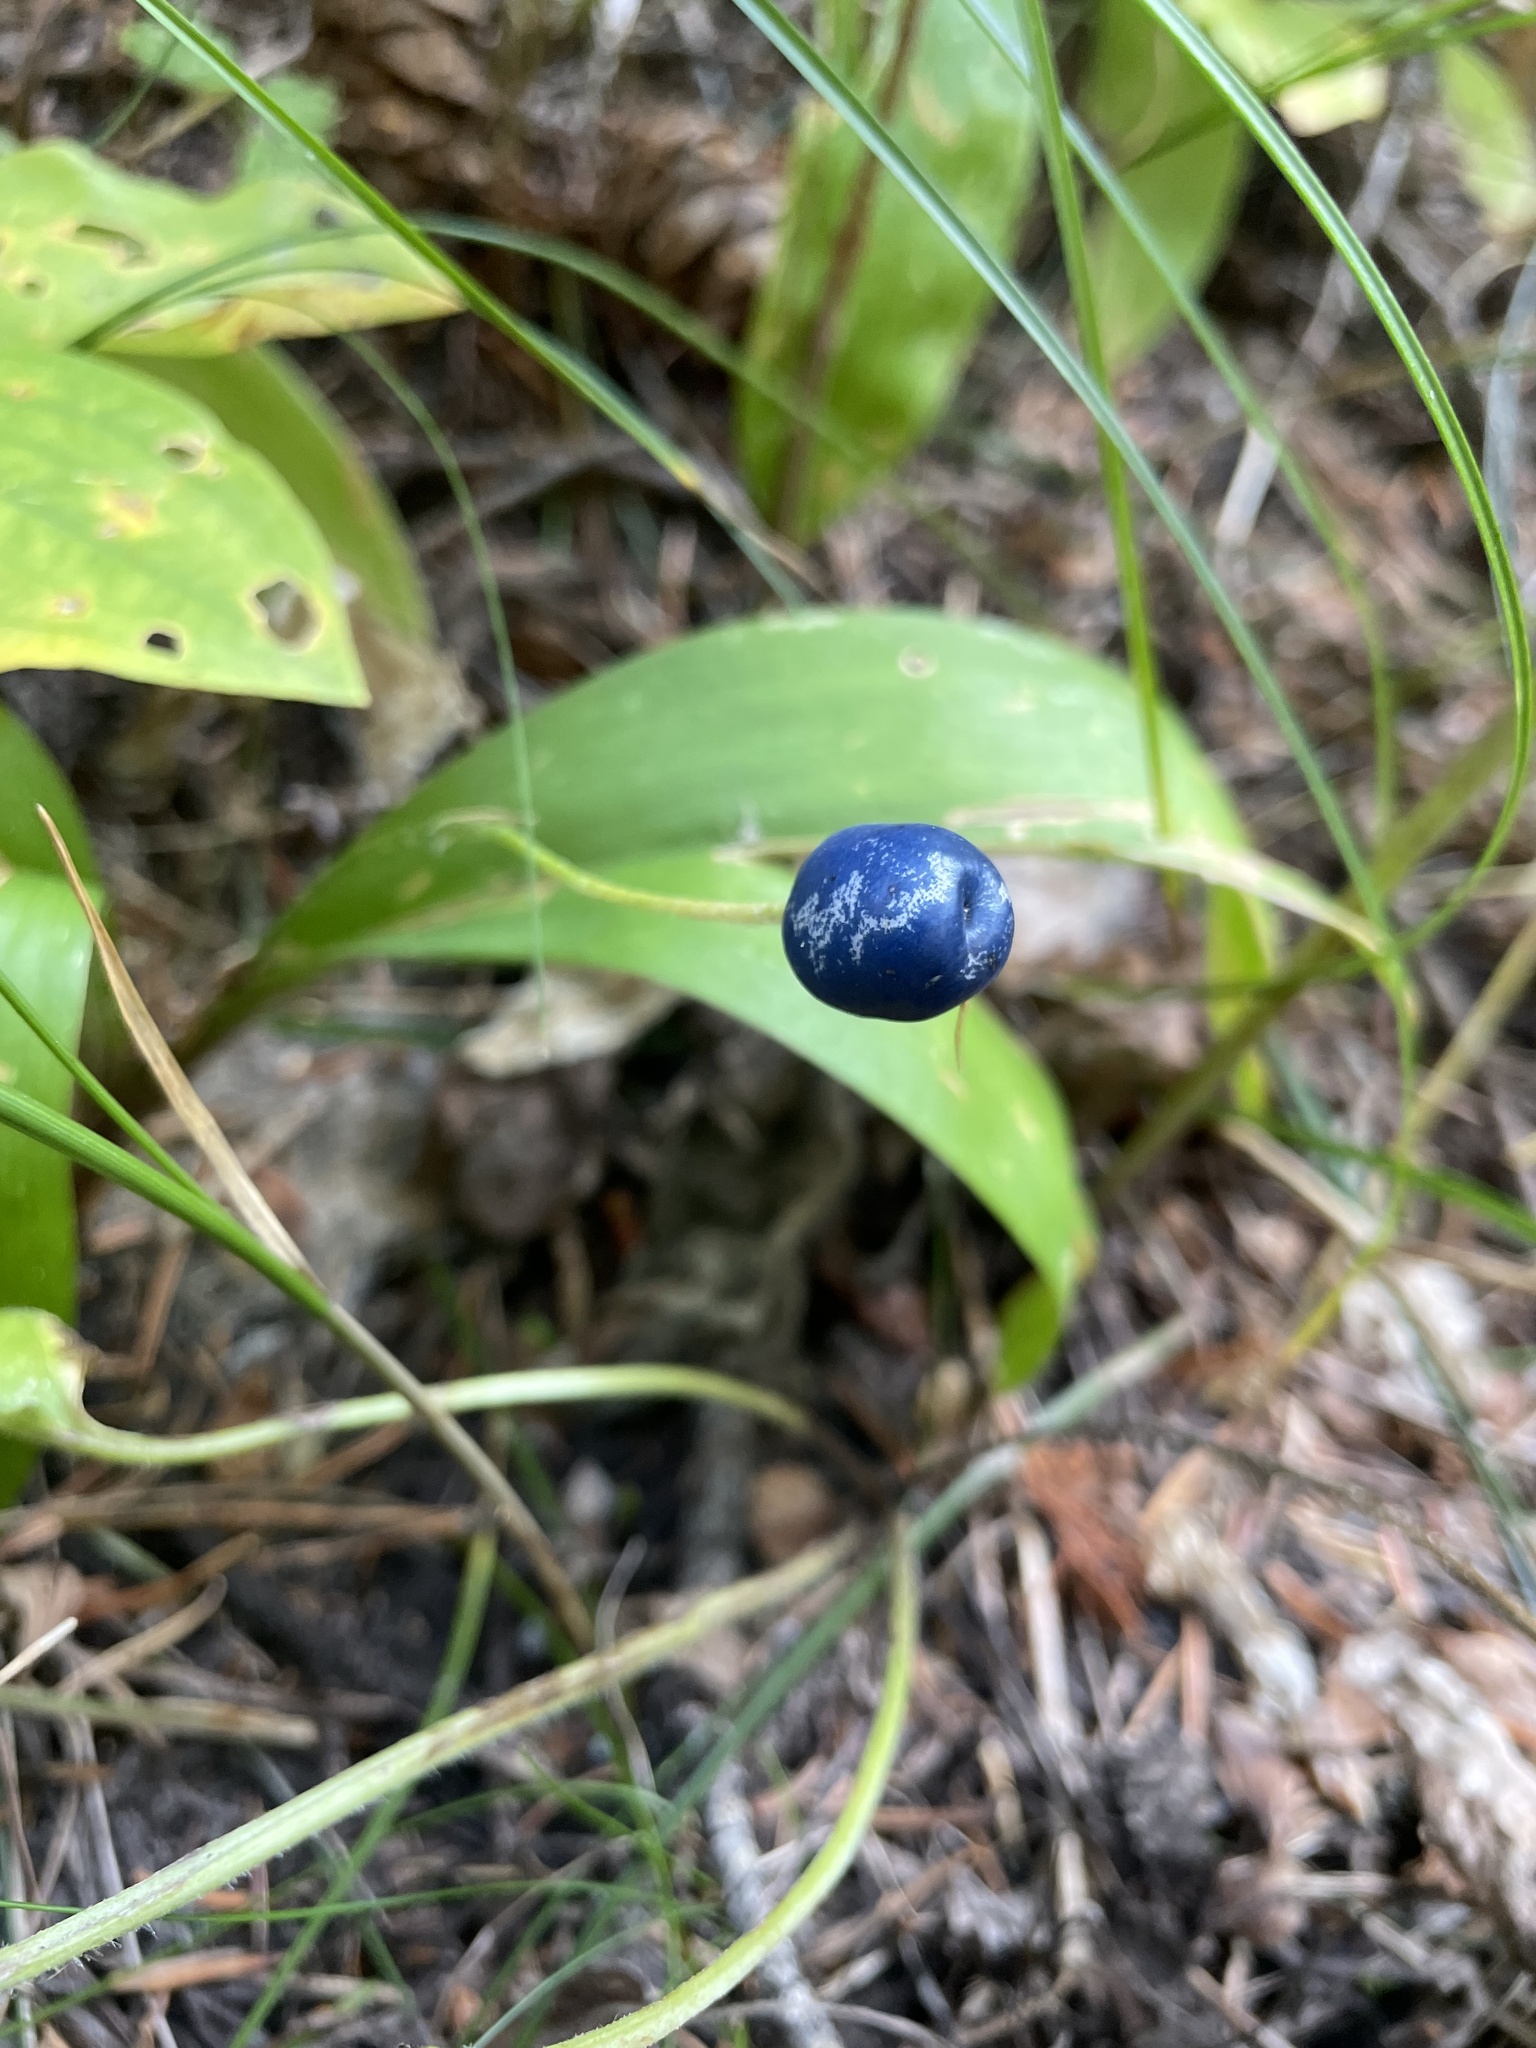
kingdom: Plantae
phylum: Tracheophyta
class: Liliopsida
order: Liliales
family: Liliaceae
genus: Clintonia
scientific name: Clintonia uniflora
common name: Queen's cup
